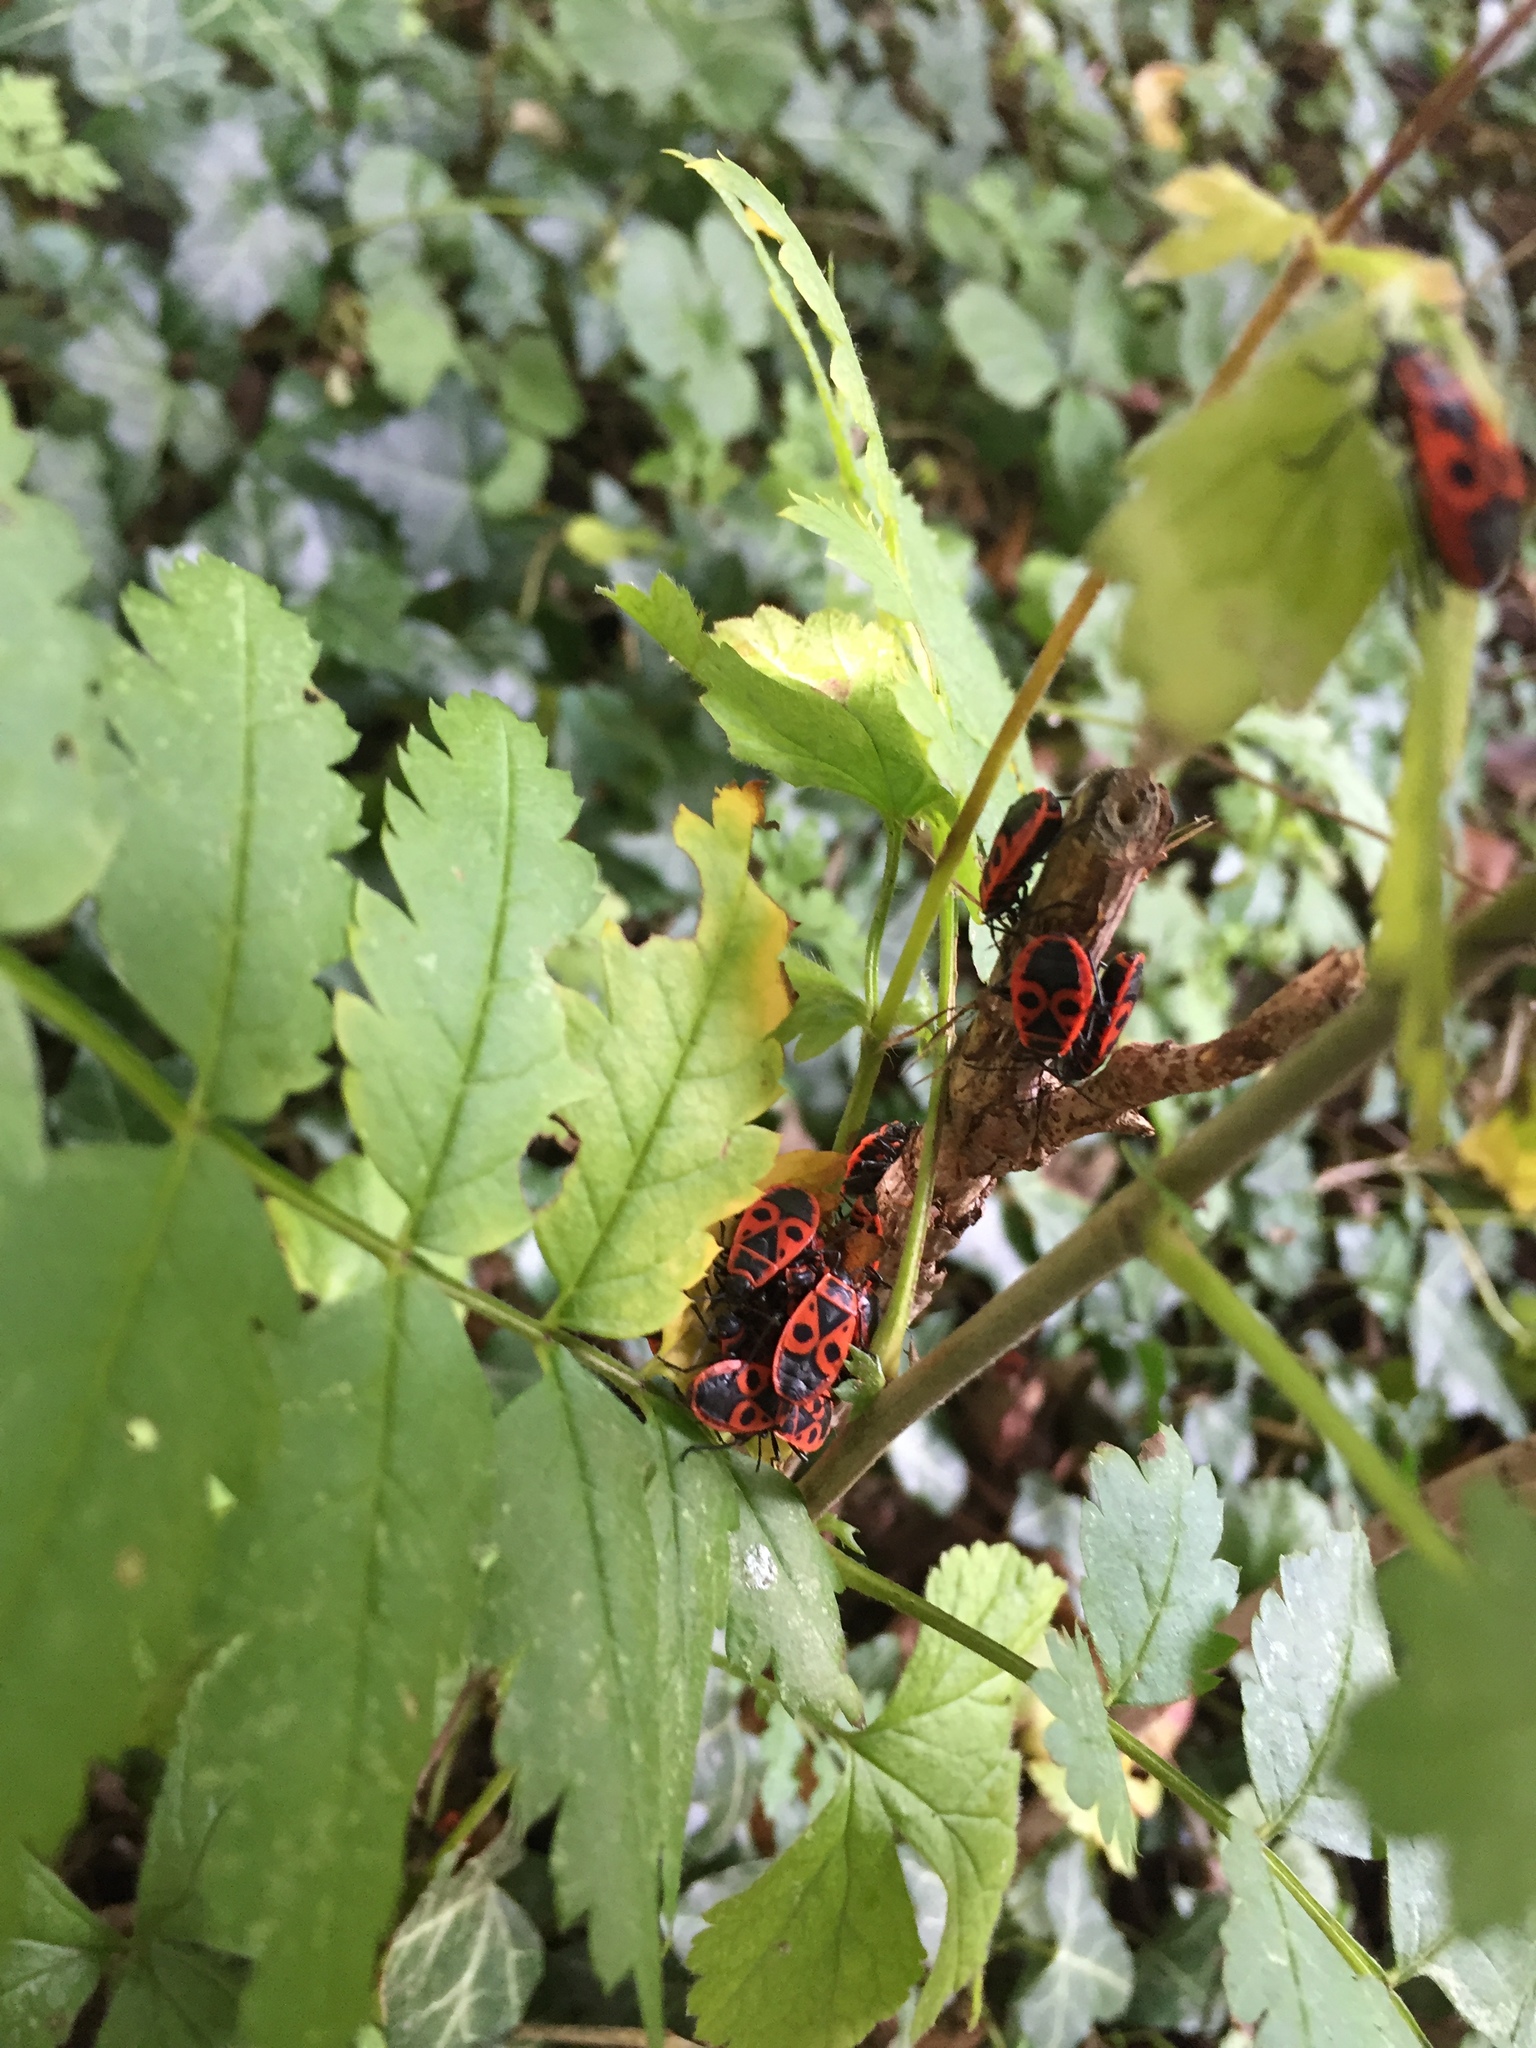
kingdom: Animalia
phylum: Arthropoda
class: Insecta
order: Hemiptera
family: Pyrrhocoridae
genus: Pyrrhocoris
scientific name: Pyrrhocoris apterus
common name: Firebug
